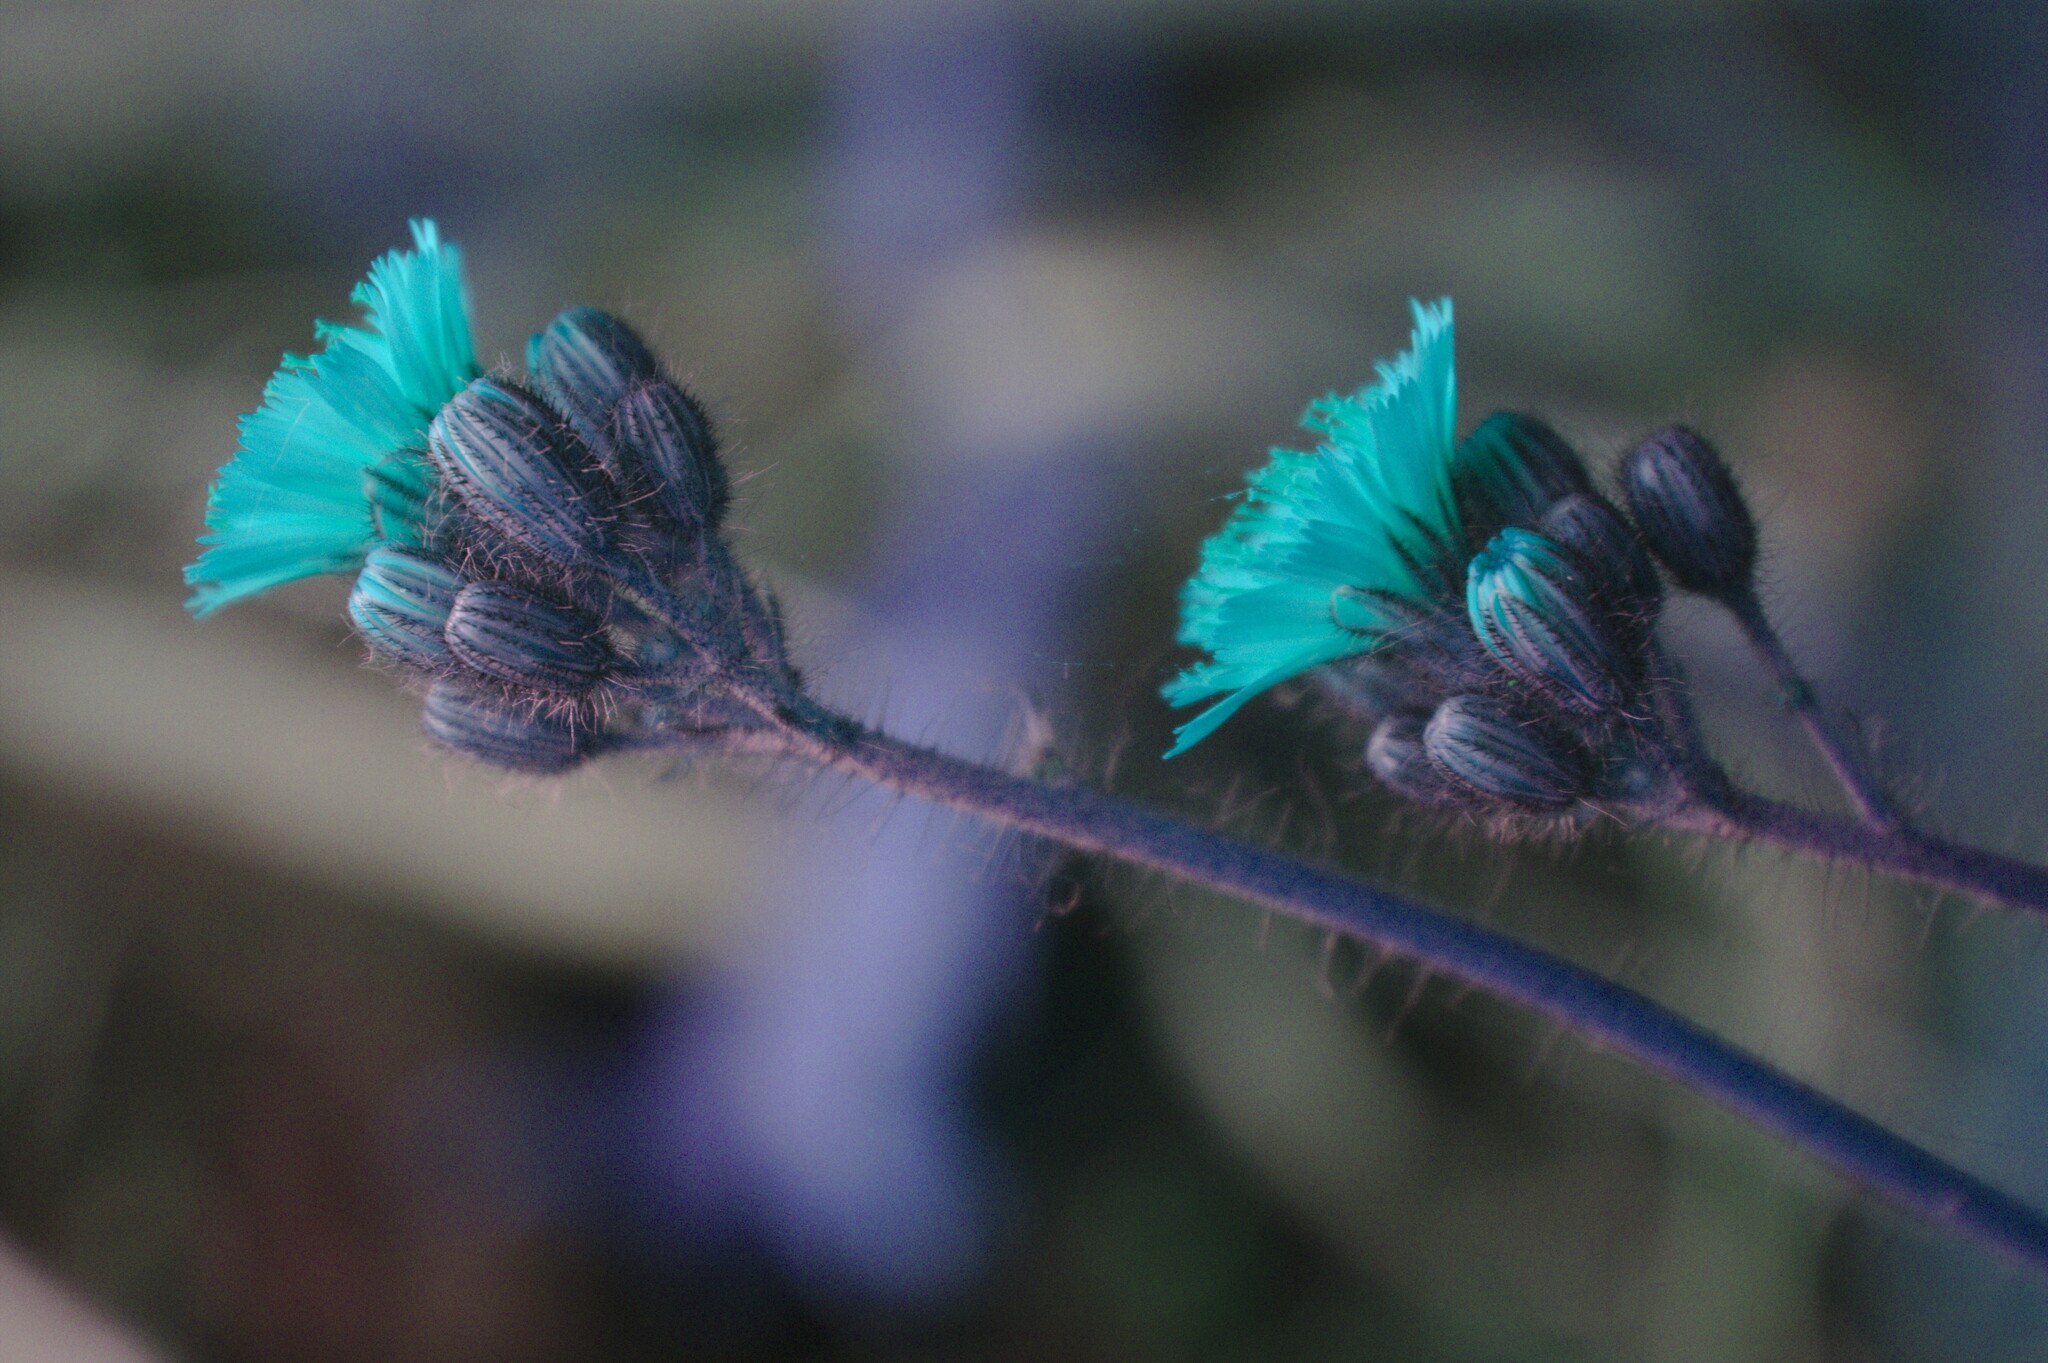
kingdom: Plantae
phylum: Tracheophyta
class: Magnoliopsida
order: Asterales
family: Asteraceae
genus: Pilosella
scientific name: Pilosella caespitosa
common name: Yellow fox-and-cubs
